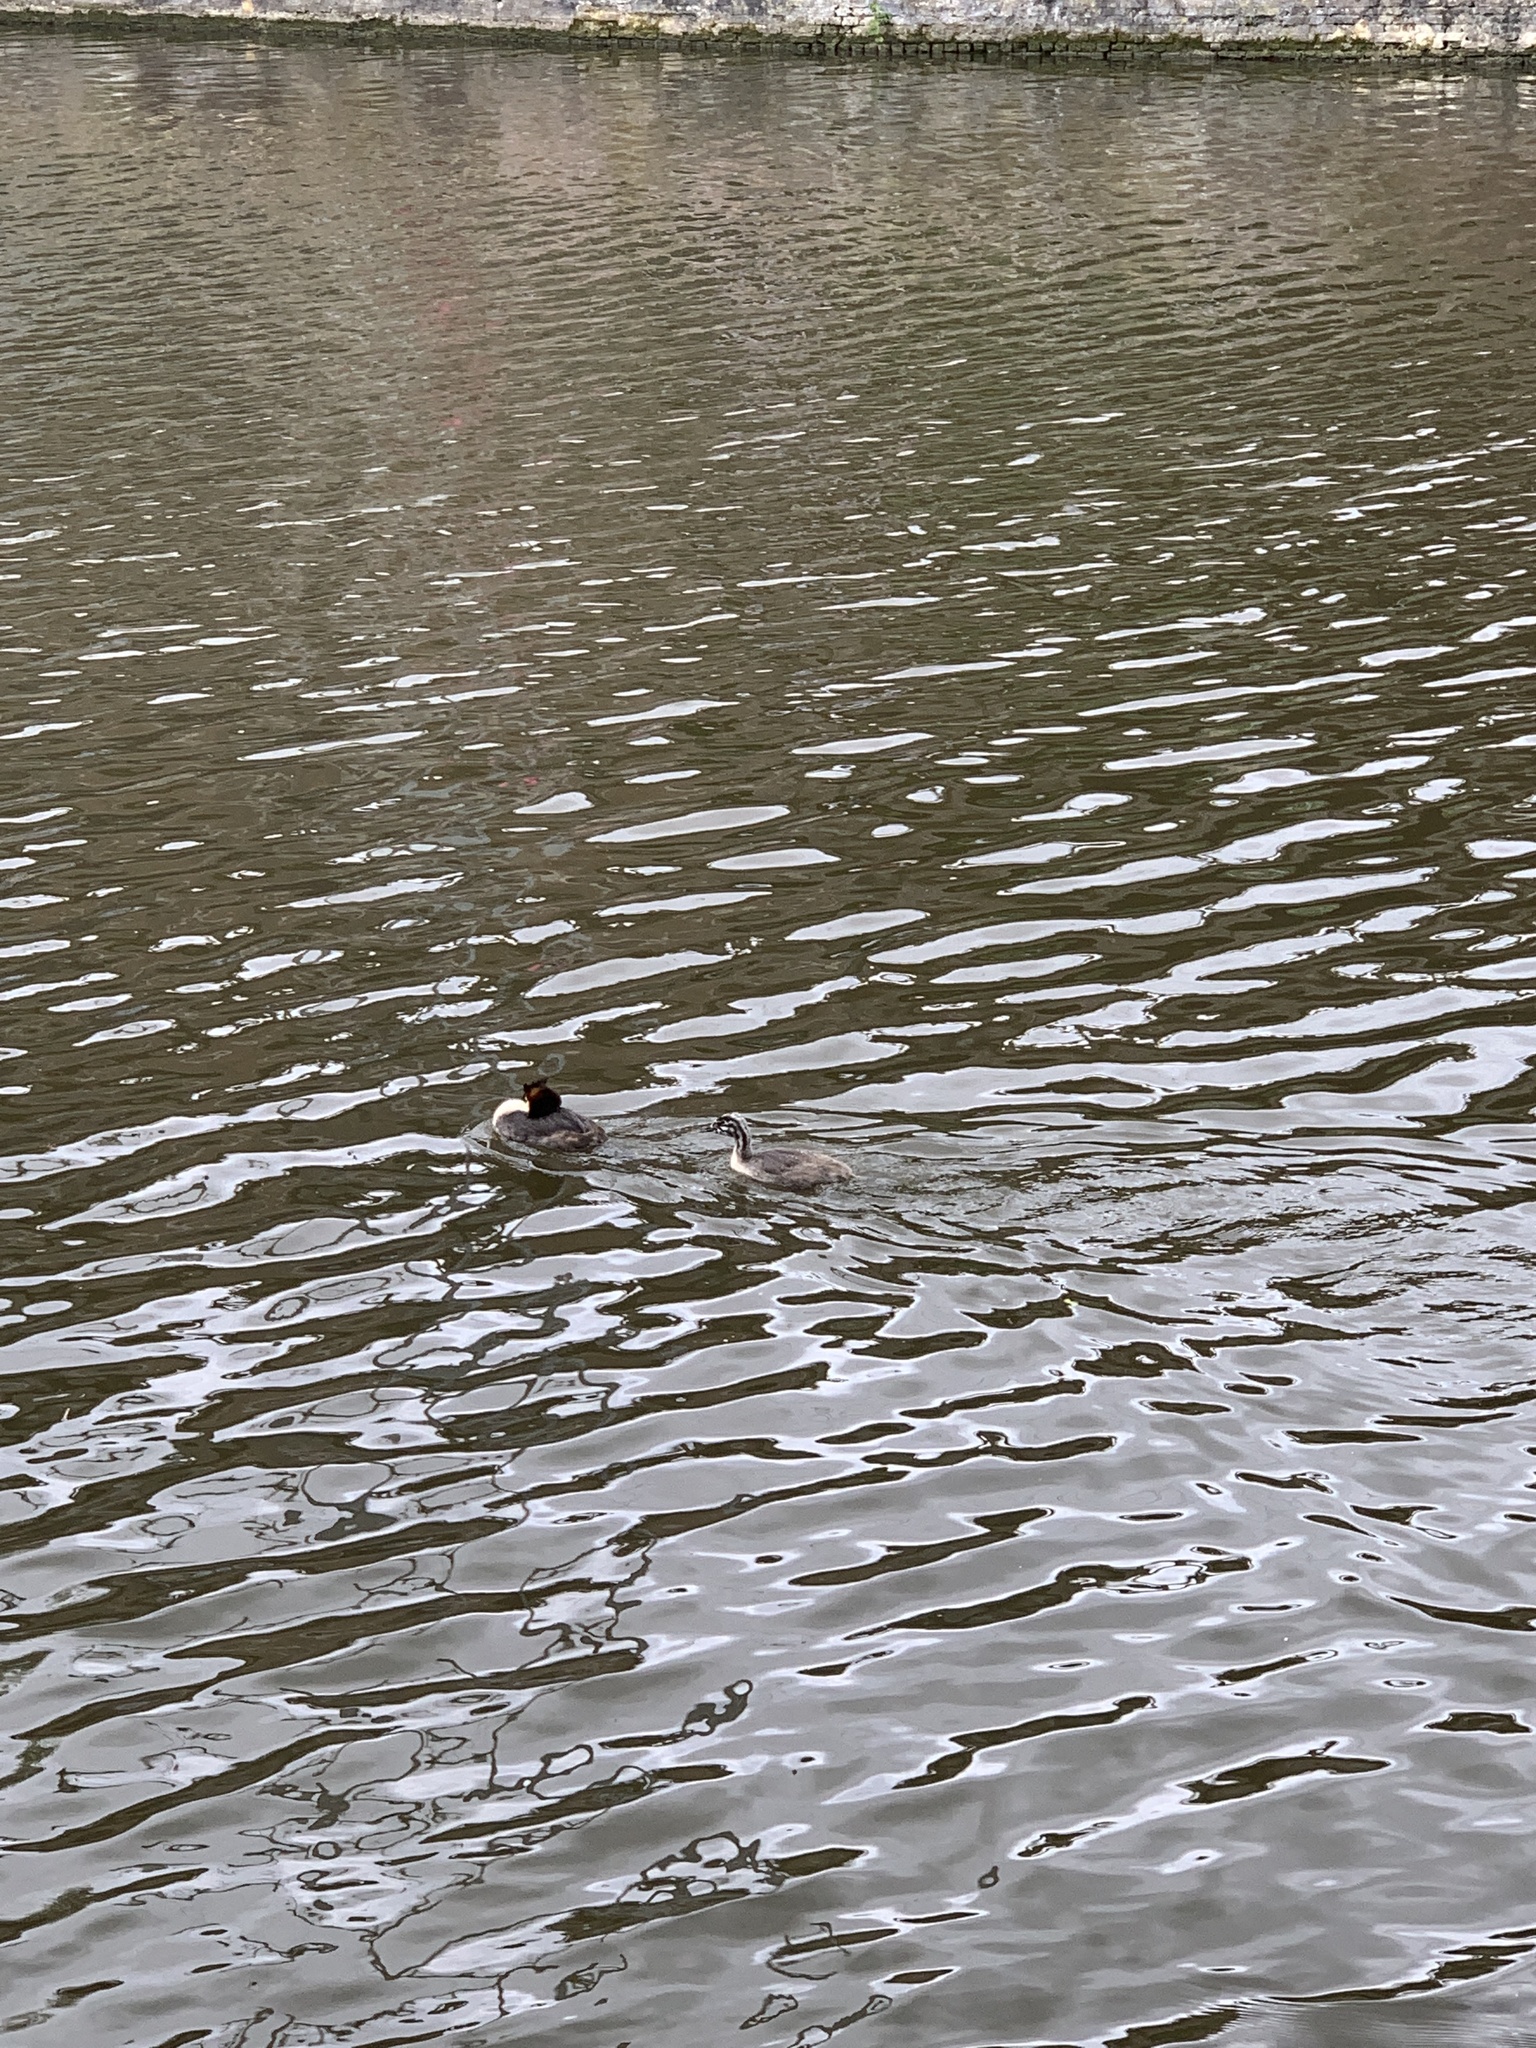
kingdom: Animalia
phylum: Chordata
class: Aves
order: Podicipediformes
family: Podicipedidae
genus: Podiceps
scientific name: Podiceps cristatus
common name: Great crested grebe
